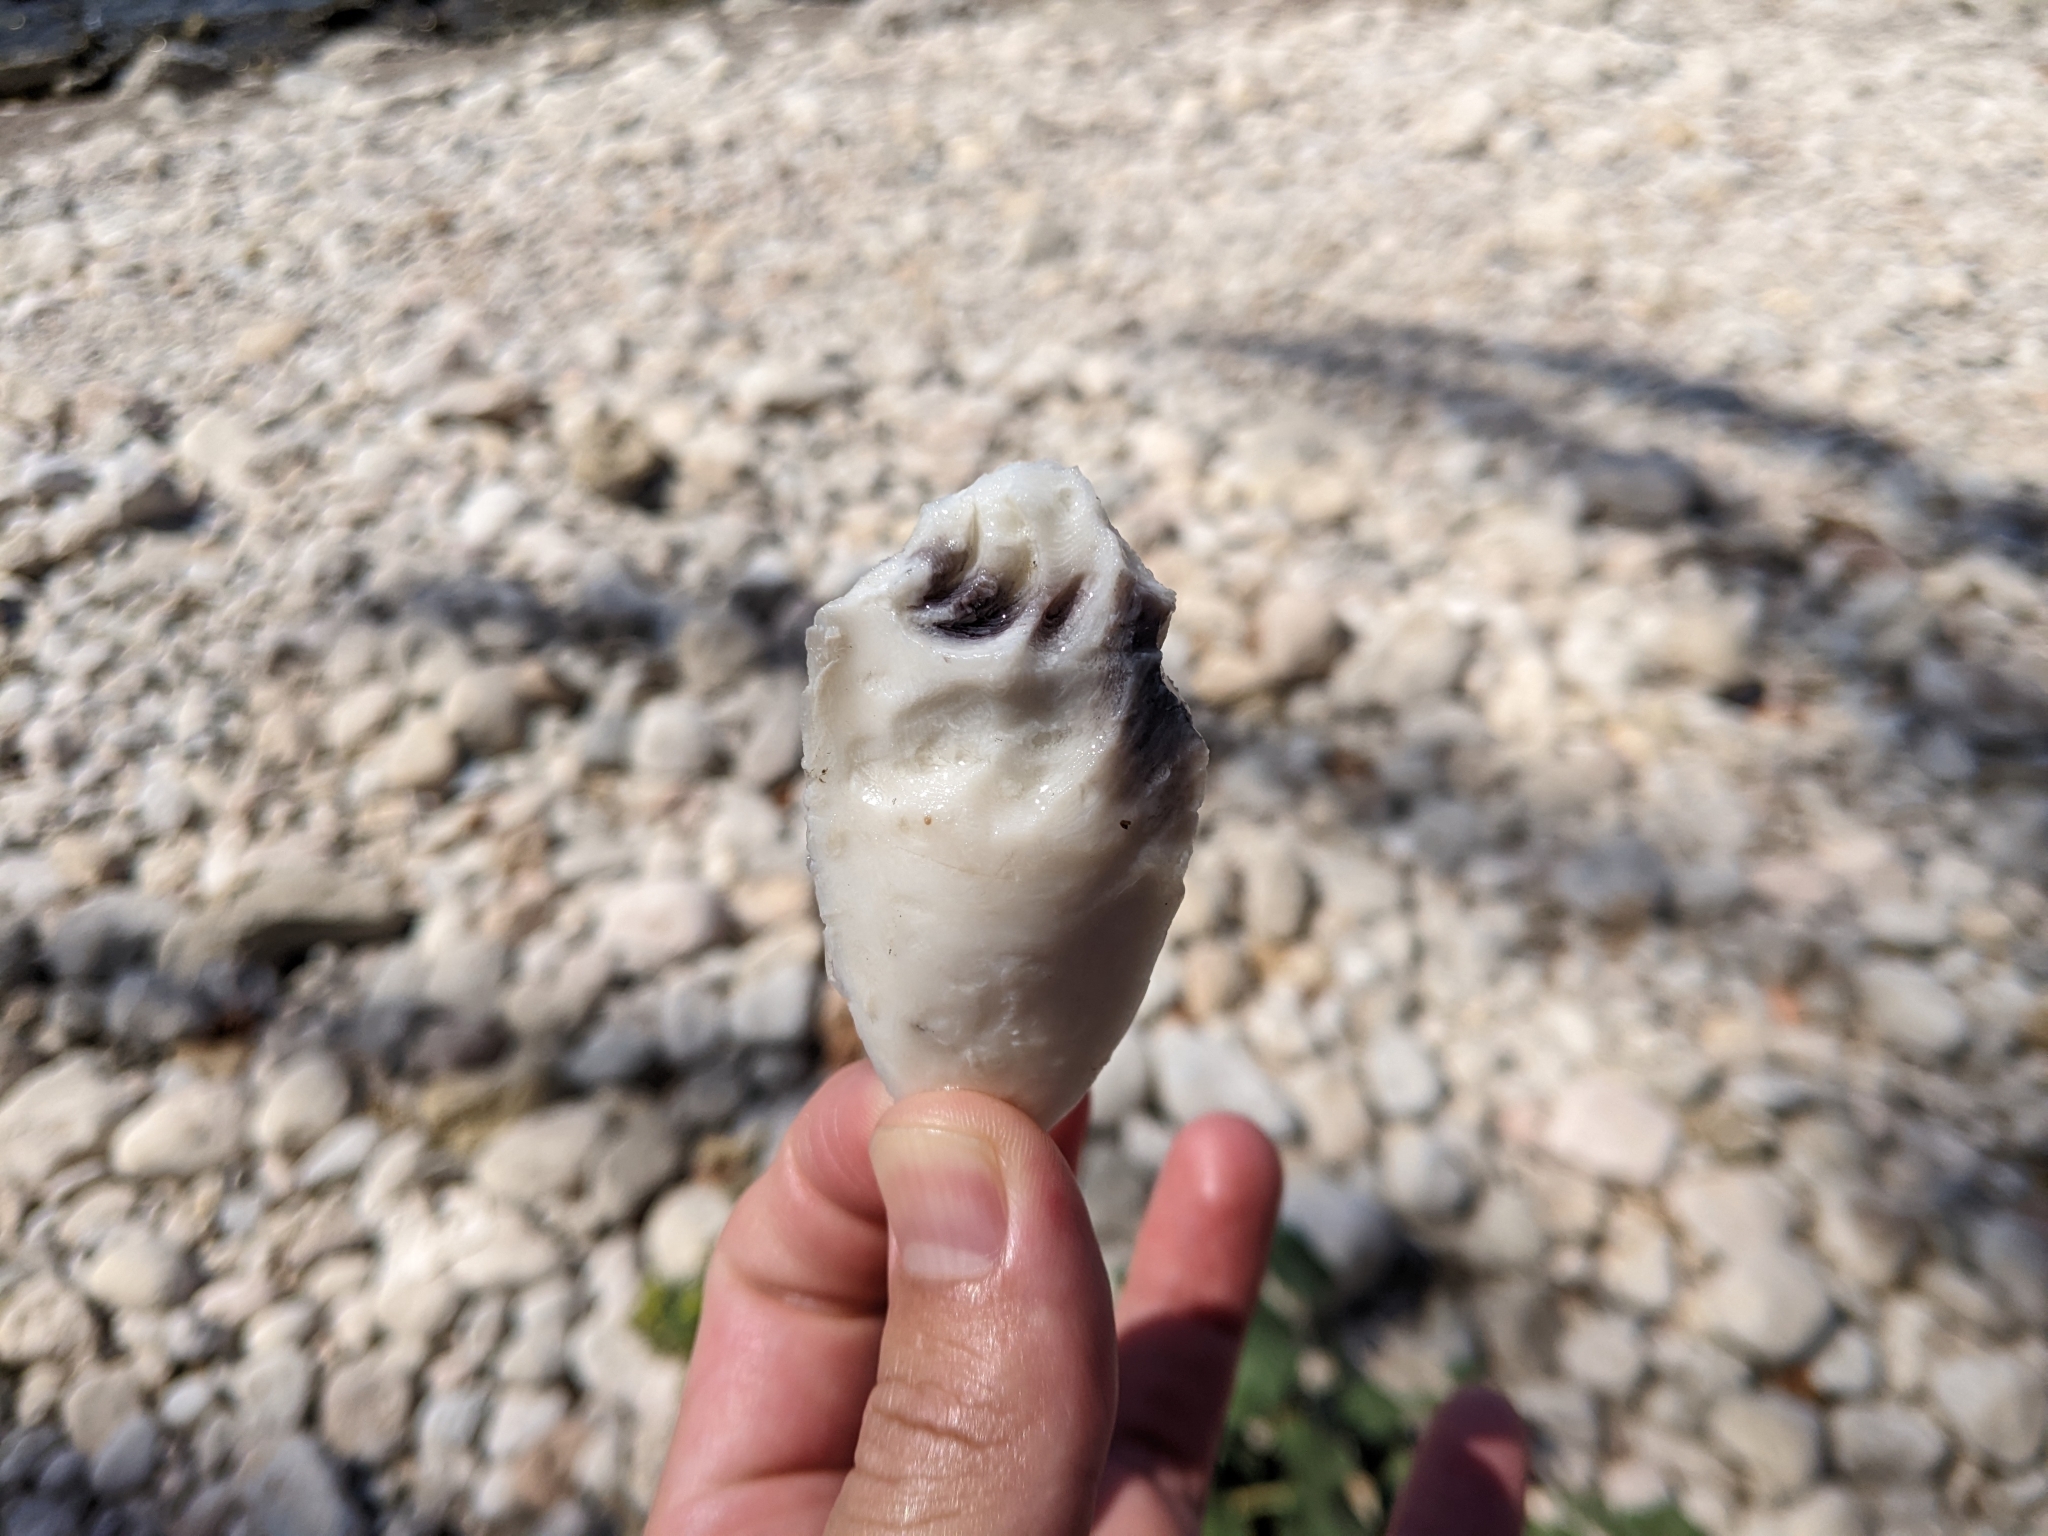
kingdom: Animalia
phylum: Mollusca
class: Cephalopoda
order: Sepiida
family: Sepiidae
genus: Sepia
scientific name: Sepia officinalis
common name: Common cuttlefish
